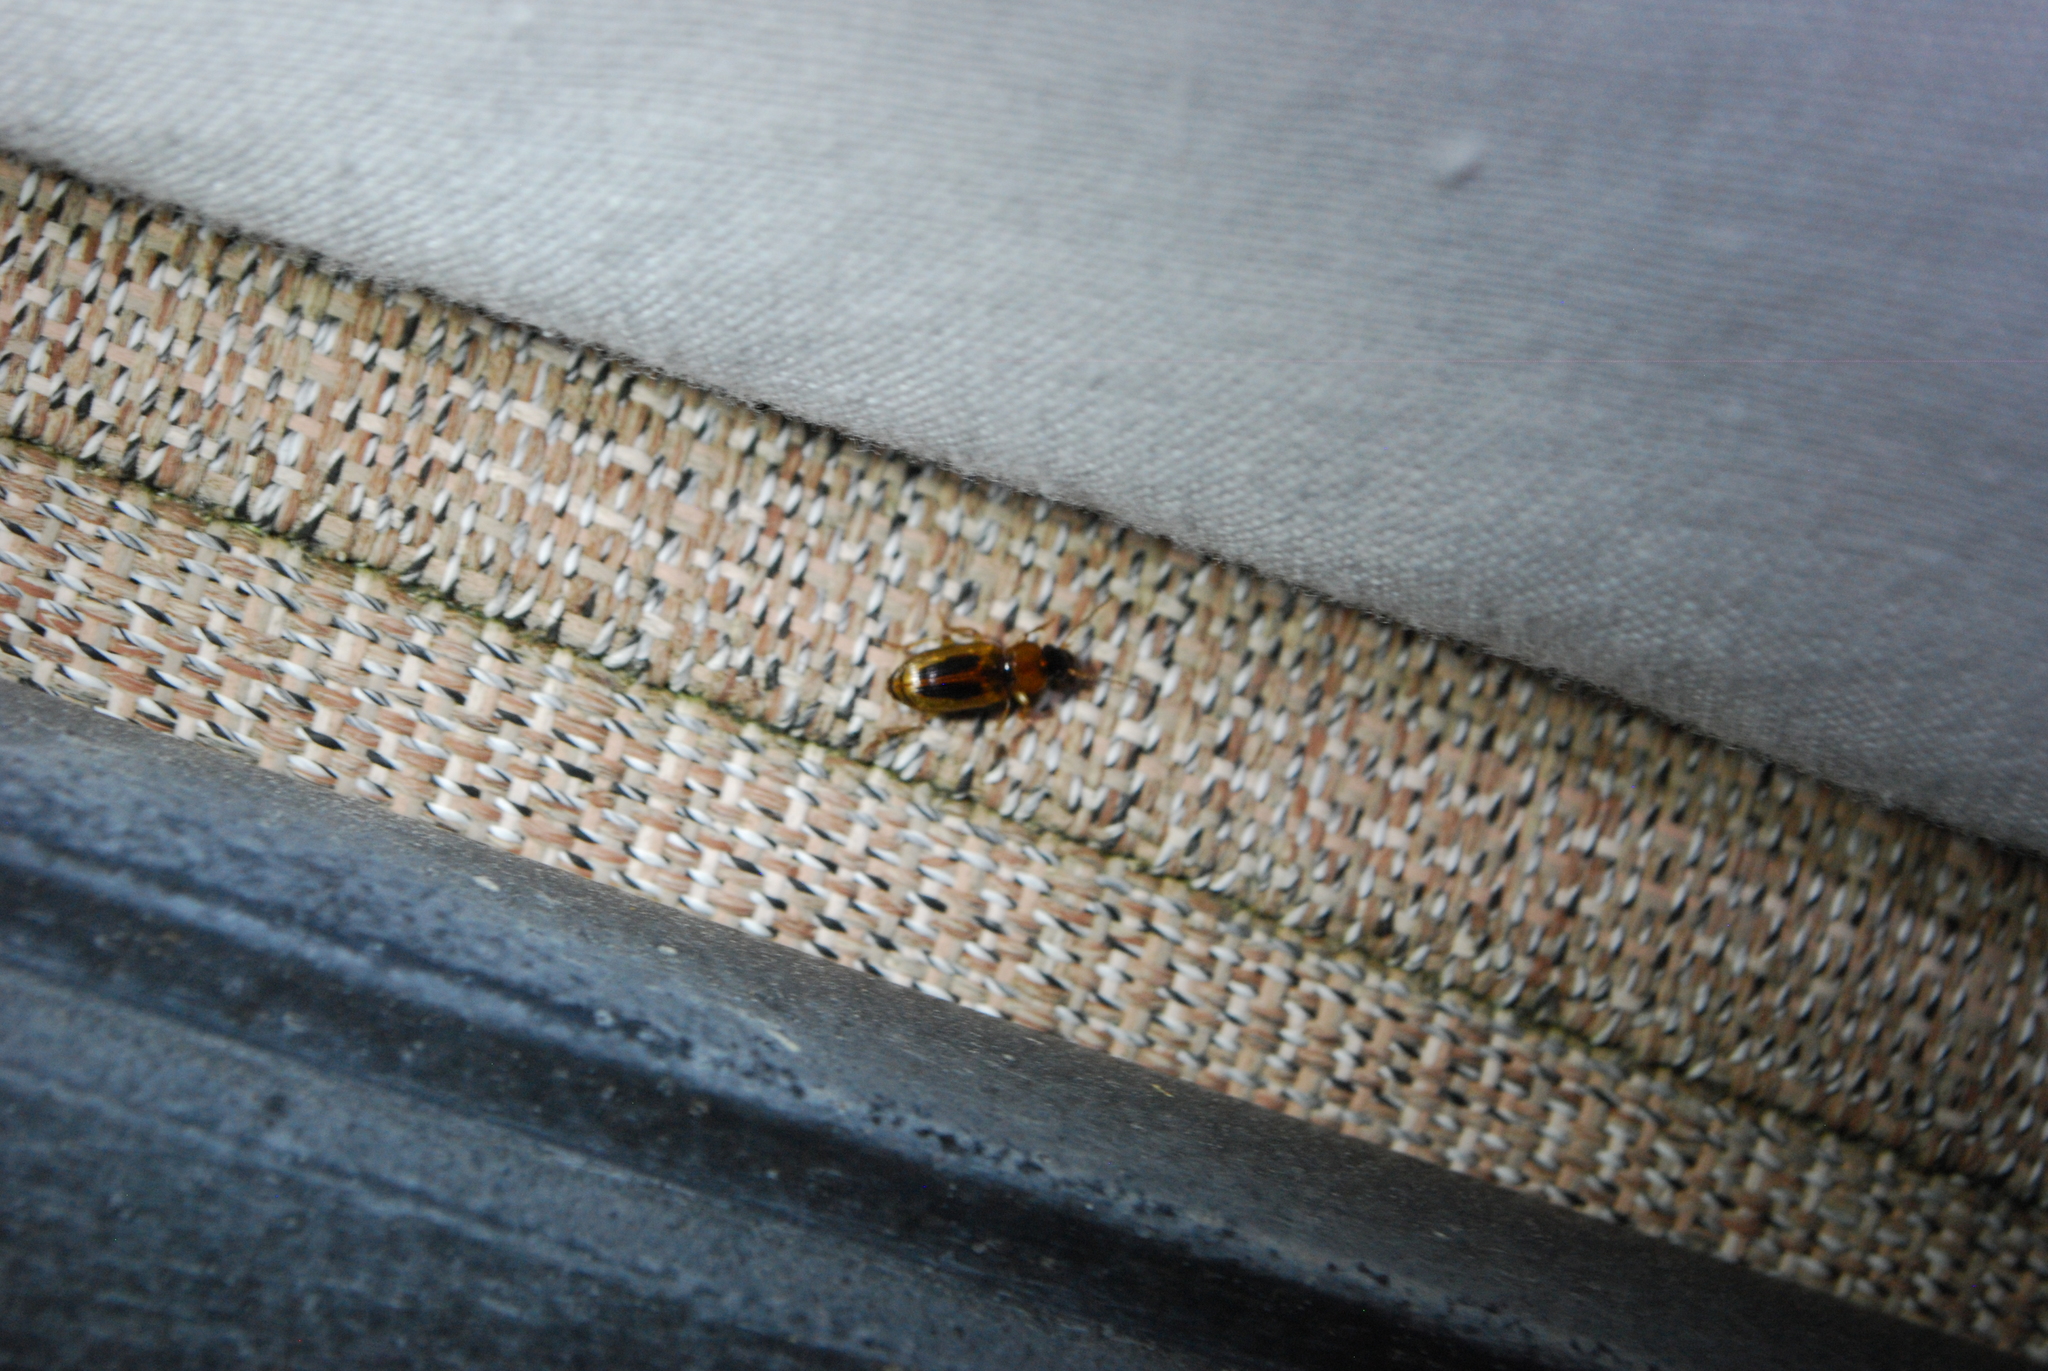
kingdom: Animalia
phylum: Arthropoda
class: Insecta
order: Coleoptera
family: Carabidae
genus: Stenolophus
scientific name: Stenolophus comma
